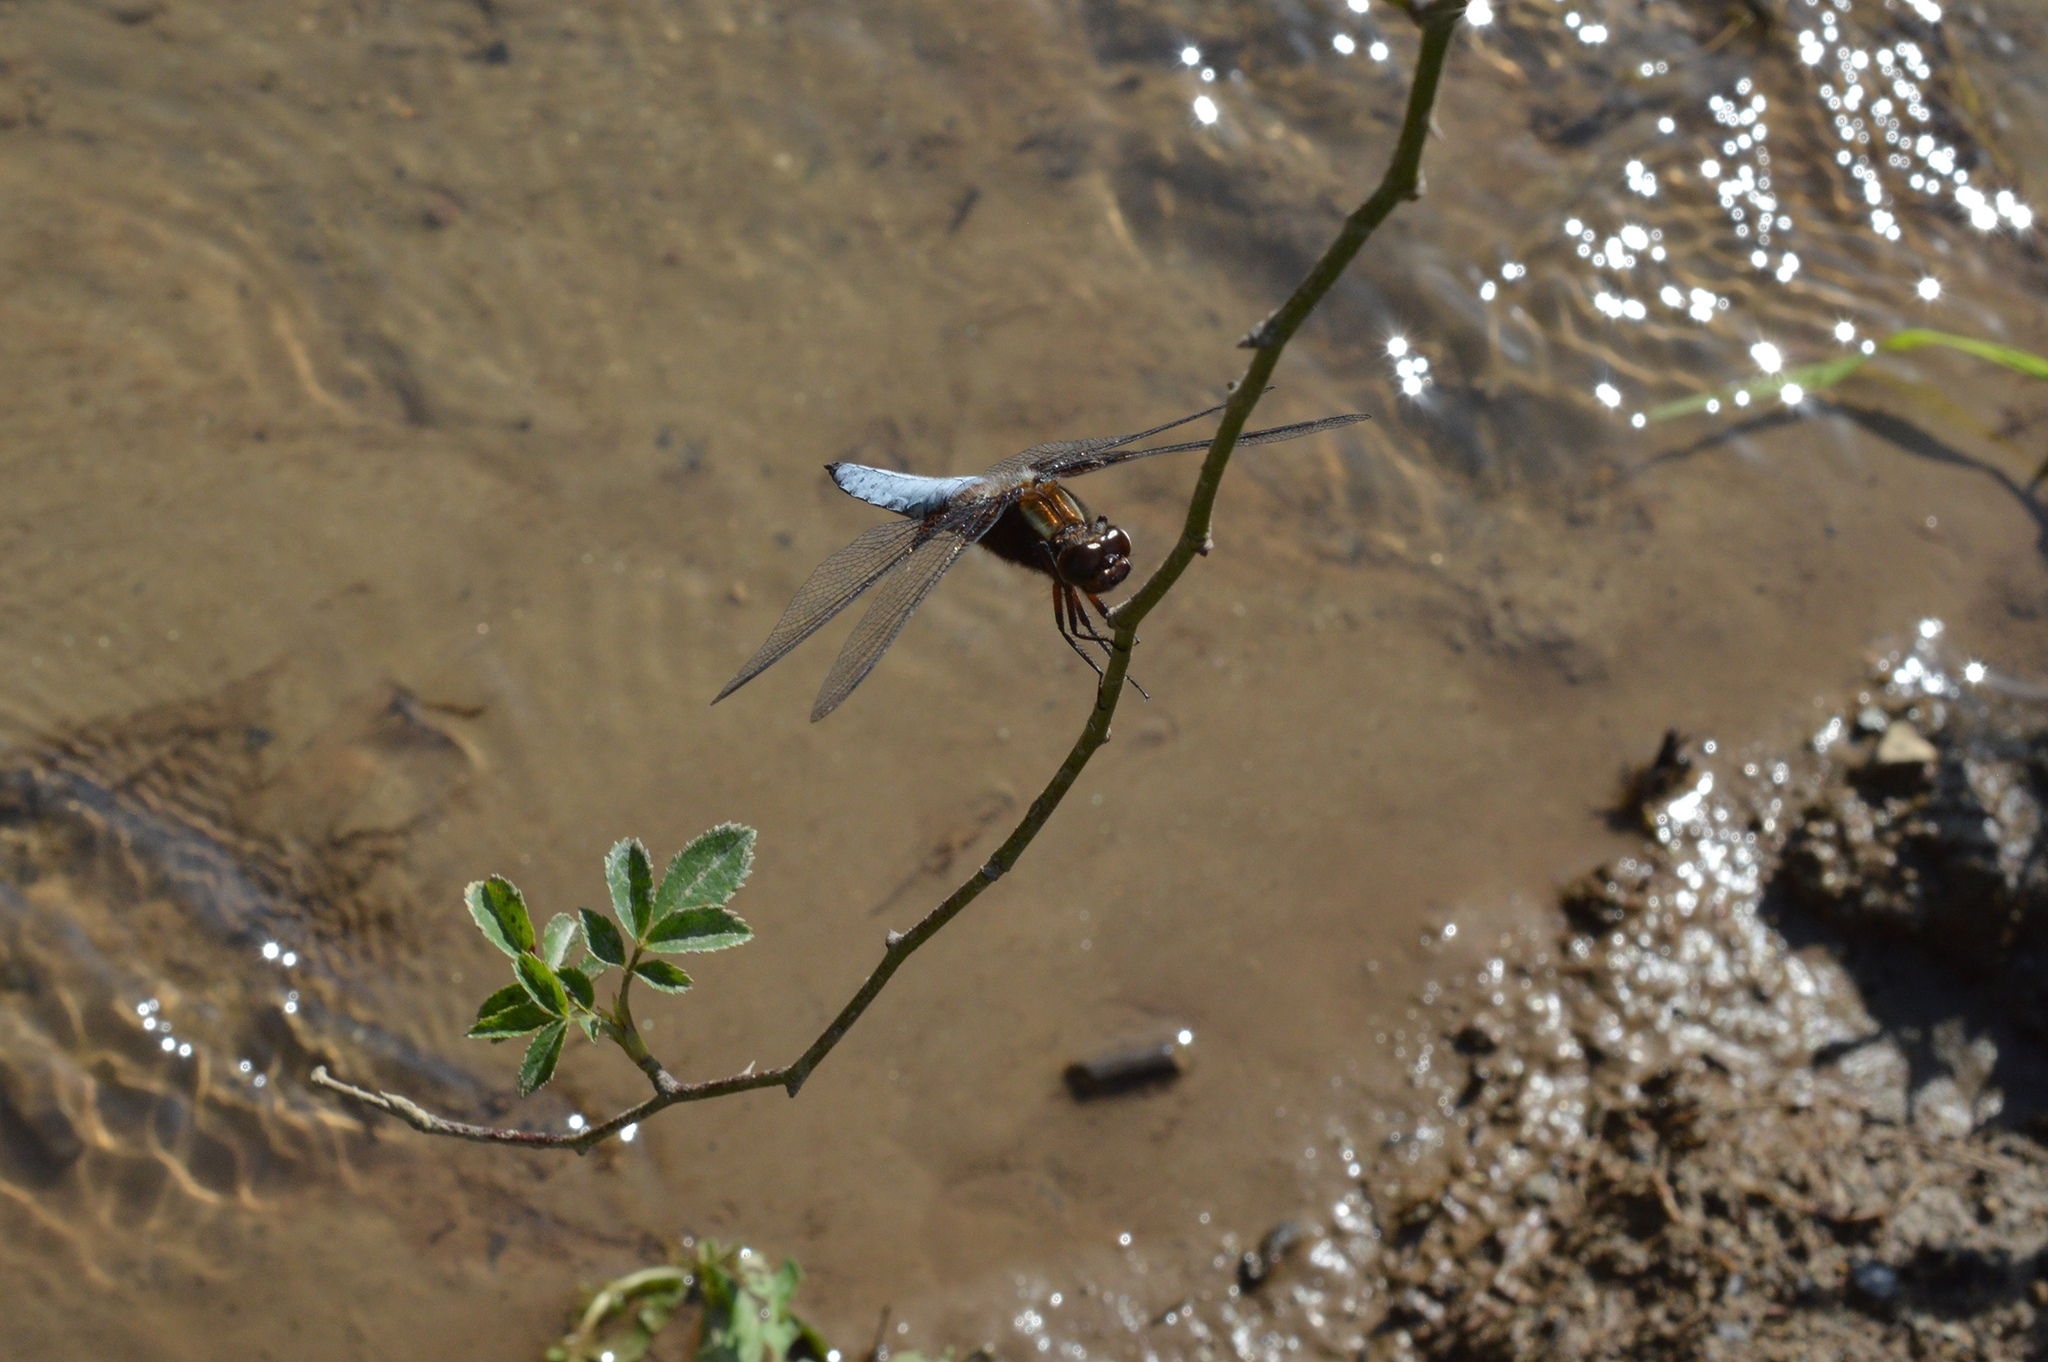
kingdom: Animalia
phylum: Arthropoda
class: Insecta
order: Odonata
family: Libellulidae
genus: Libellula
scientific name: Libellula depressa
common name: Broad-bodied chaser
